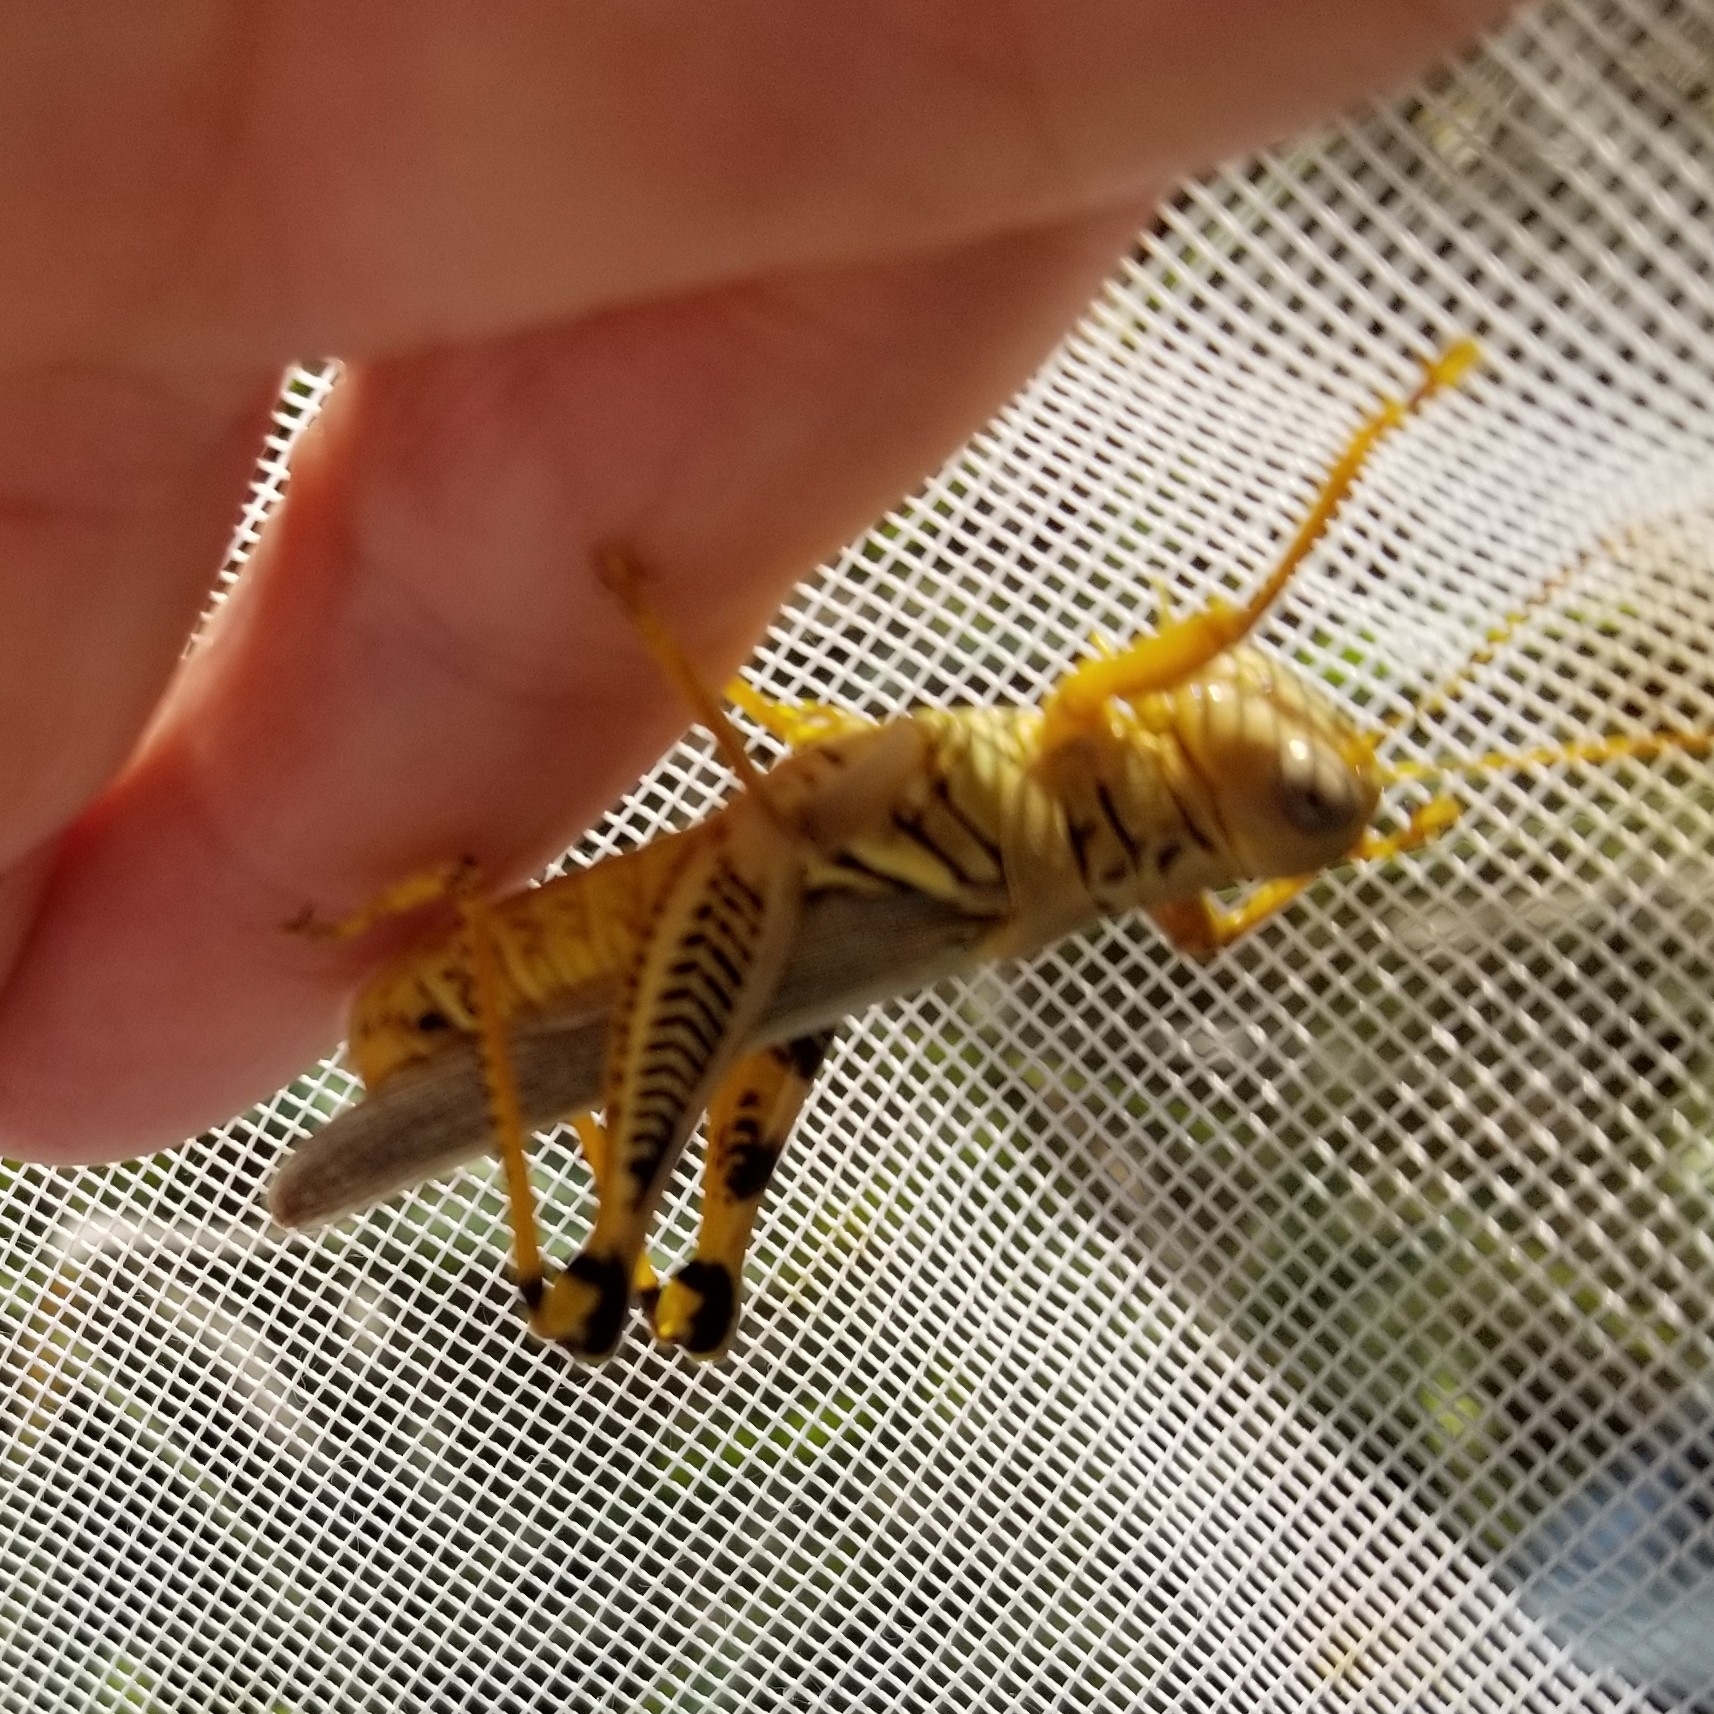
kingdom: Animalia
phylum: Arthropoda
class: Insecta
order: Orthoptera
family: Acrididae
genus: Melanoplus
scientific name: Melanoplus differentialis
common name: Differential grasshopper
